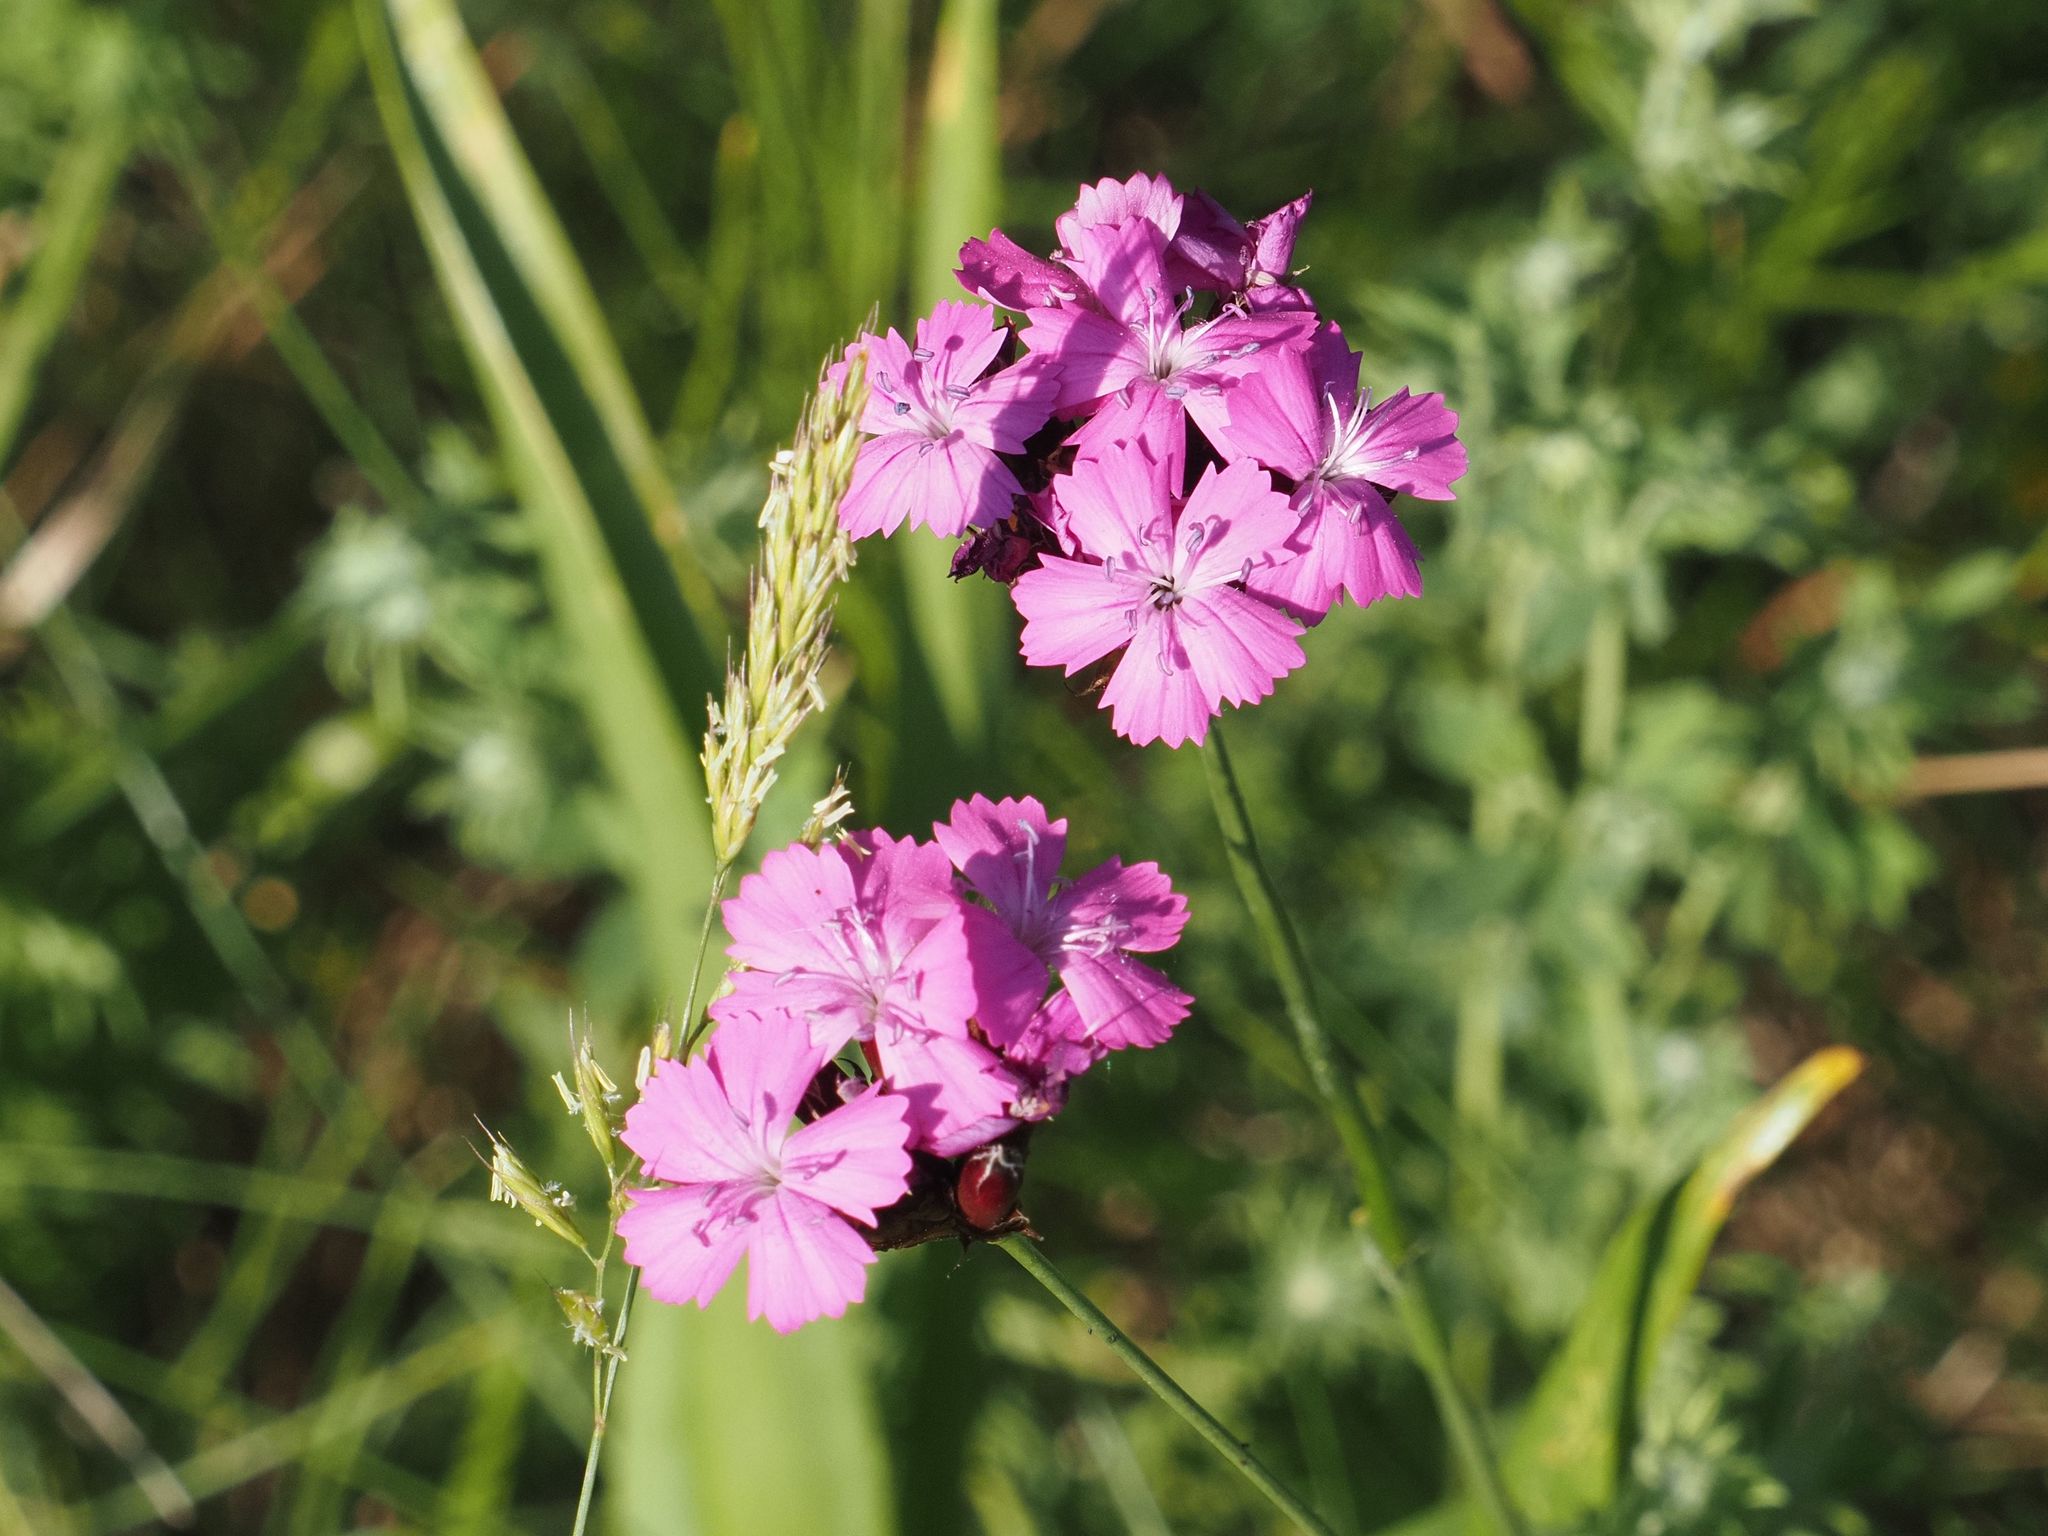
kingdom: Plantae
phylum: Tracheophyta
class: Magnoliopsida
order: Caryophyllales
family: Caryophyllaceae
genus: Dianthus
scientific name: Dianthus carthusianorum
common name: Carthusian pink
